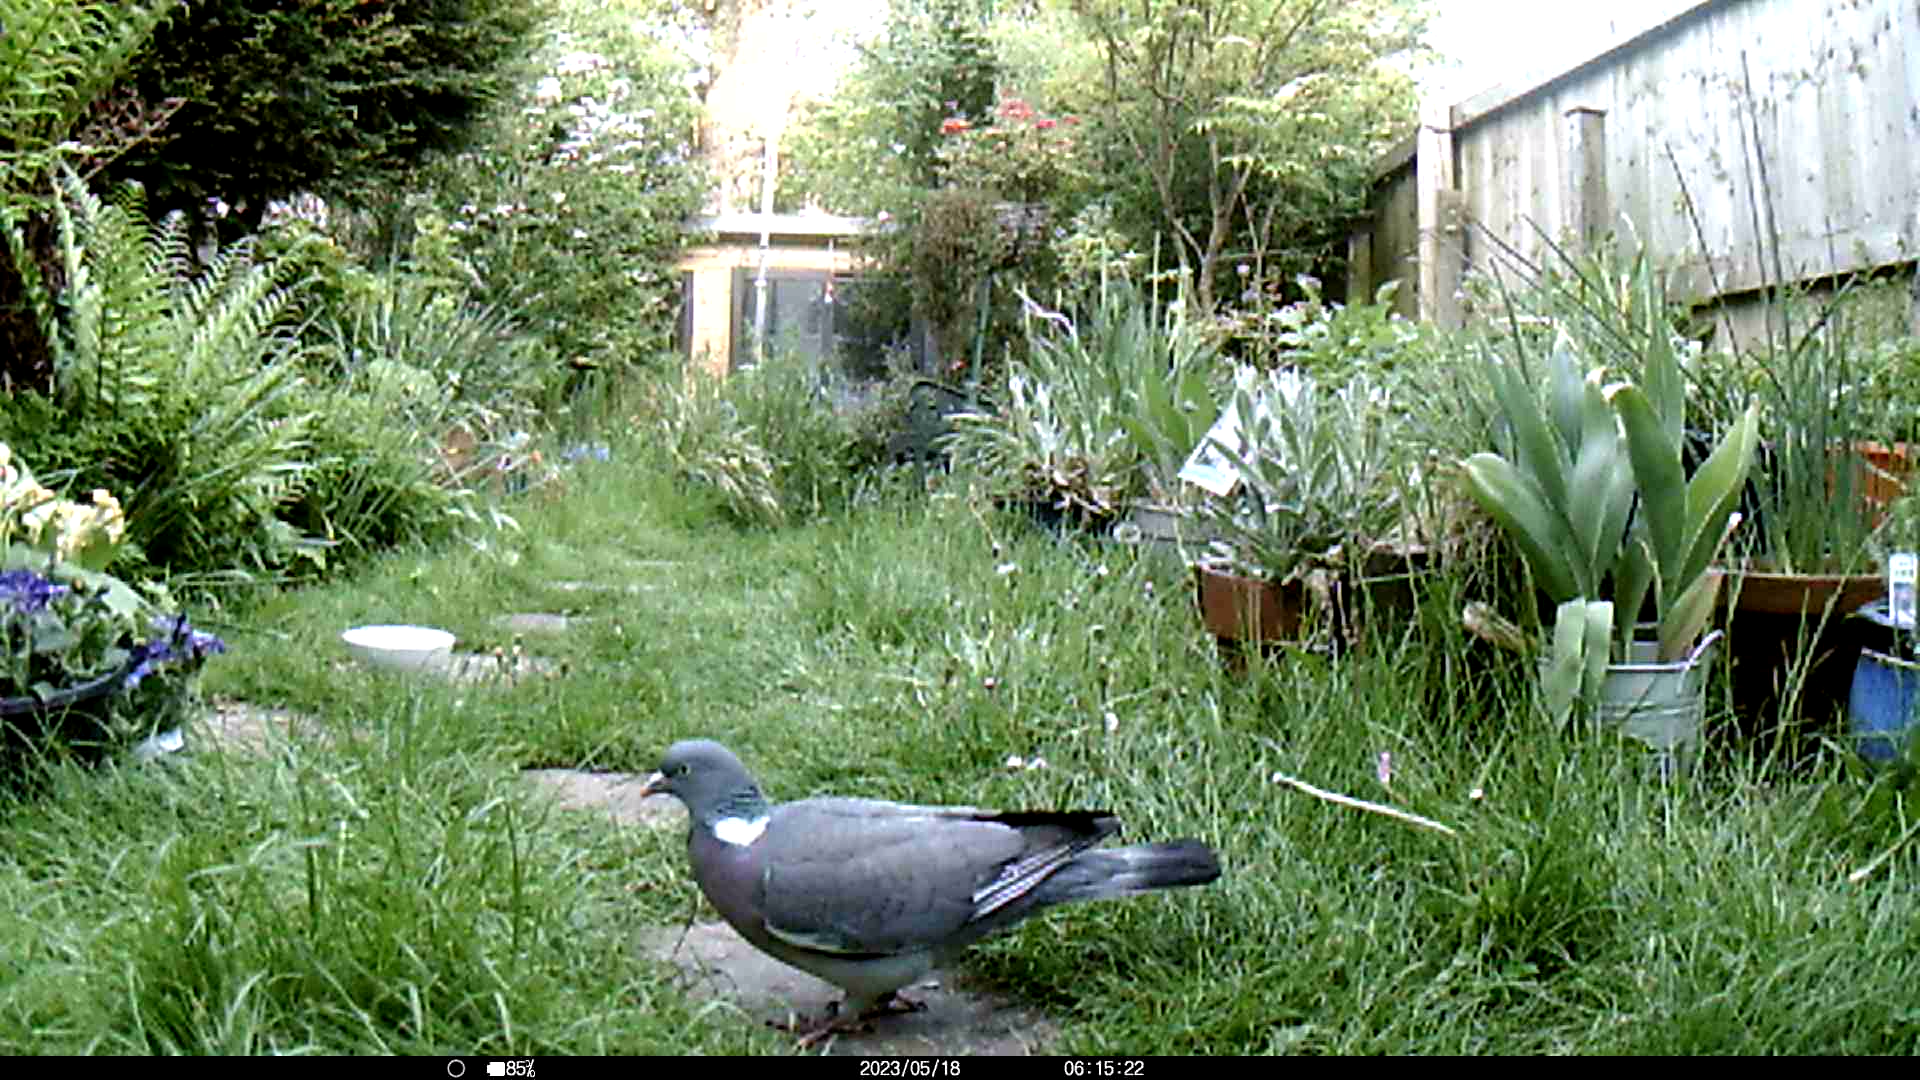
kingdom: Animalia
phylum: Chordata
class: Aves
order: Columbiformes
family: Columbidae
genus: Columba
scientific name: Columba palumbus
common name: Common wood pigeon
